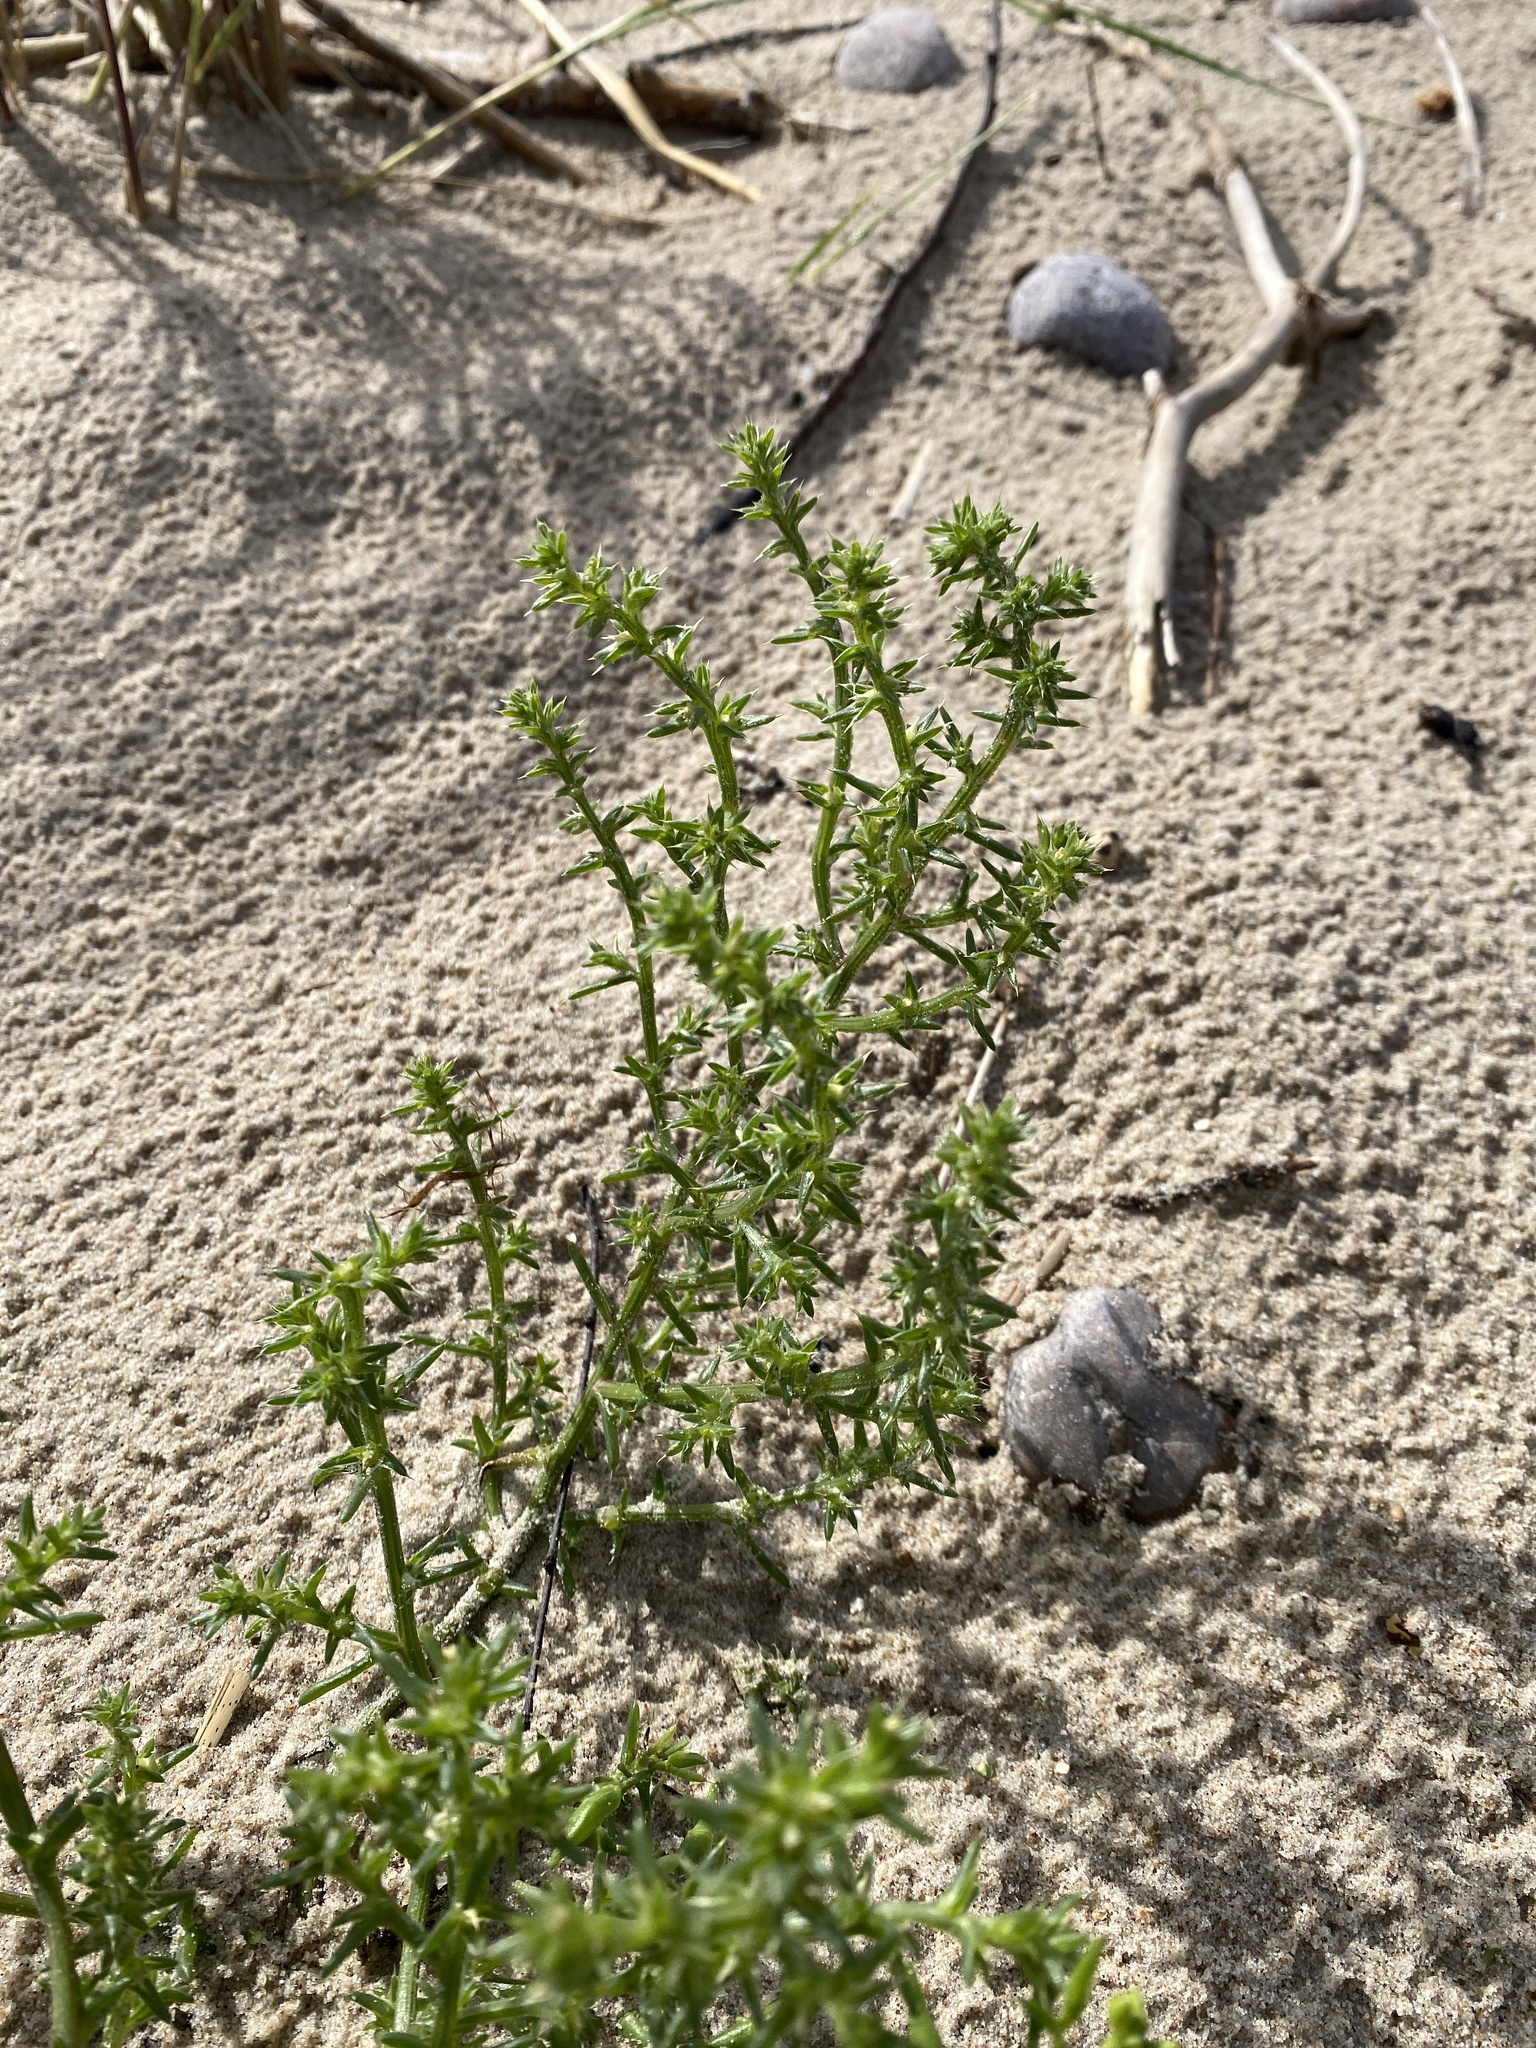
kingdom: Plantae
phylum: Tracheophyta
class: Magnoliopsida
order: Caryophyllales
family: Amaranthaceae
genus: Salsola
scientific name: Salsola kali
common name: Saltwort
